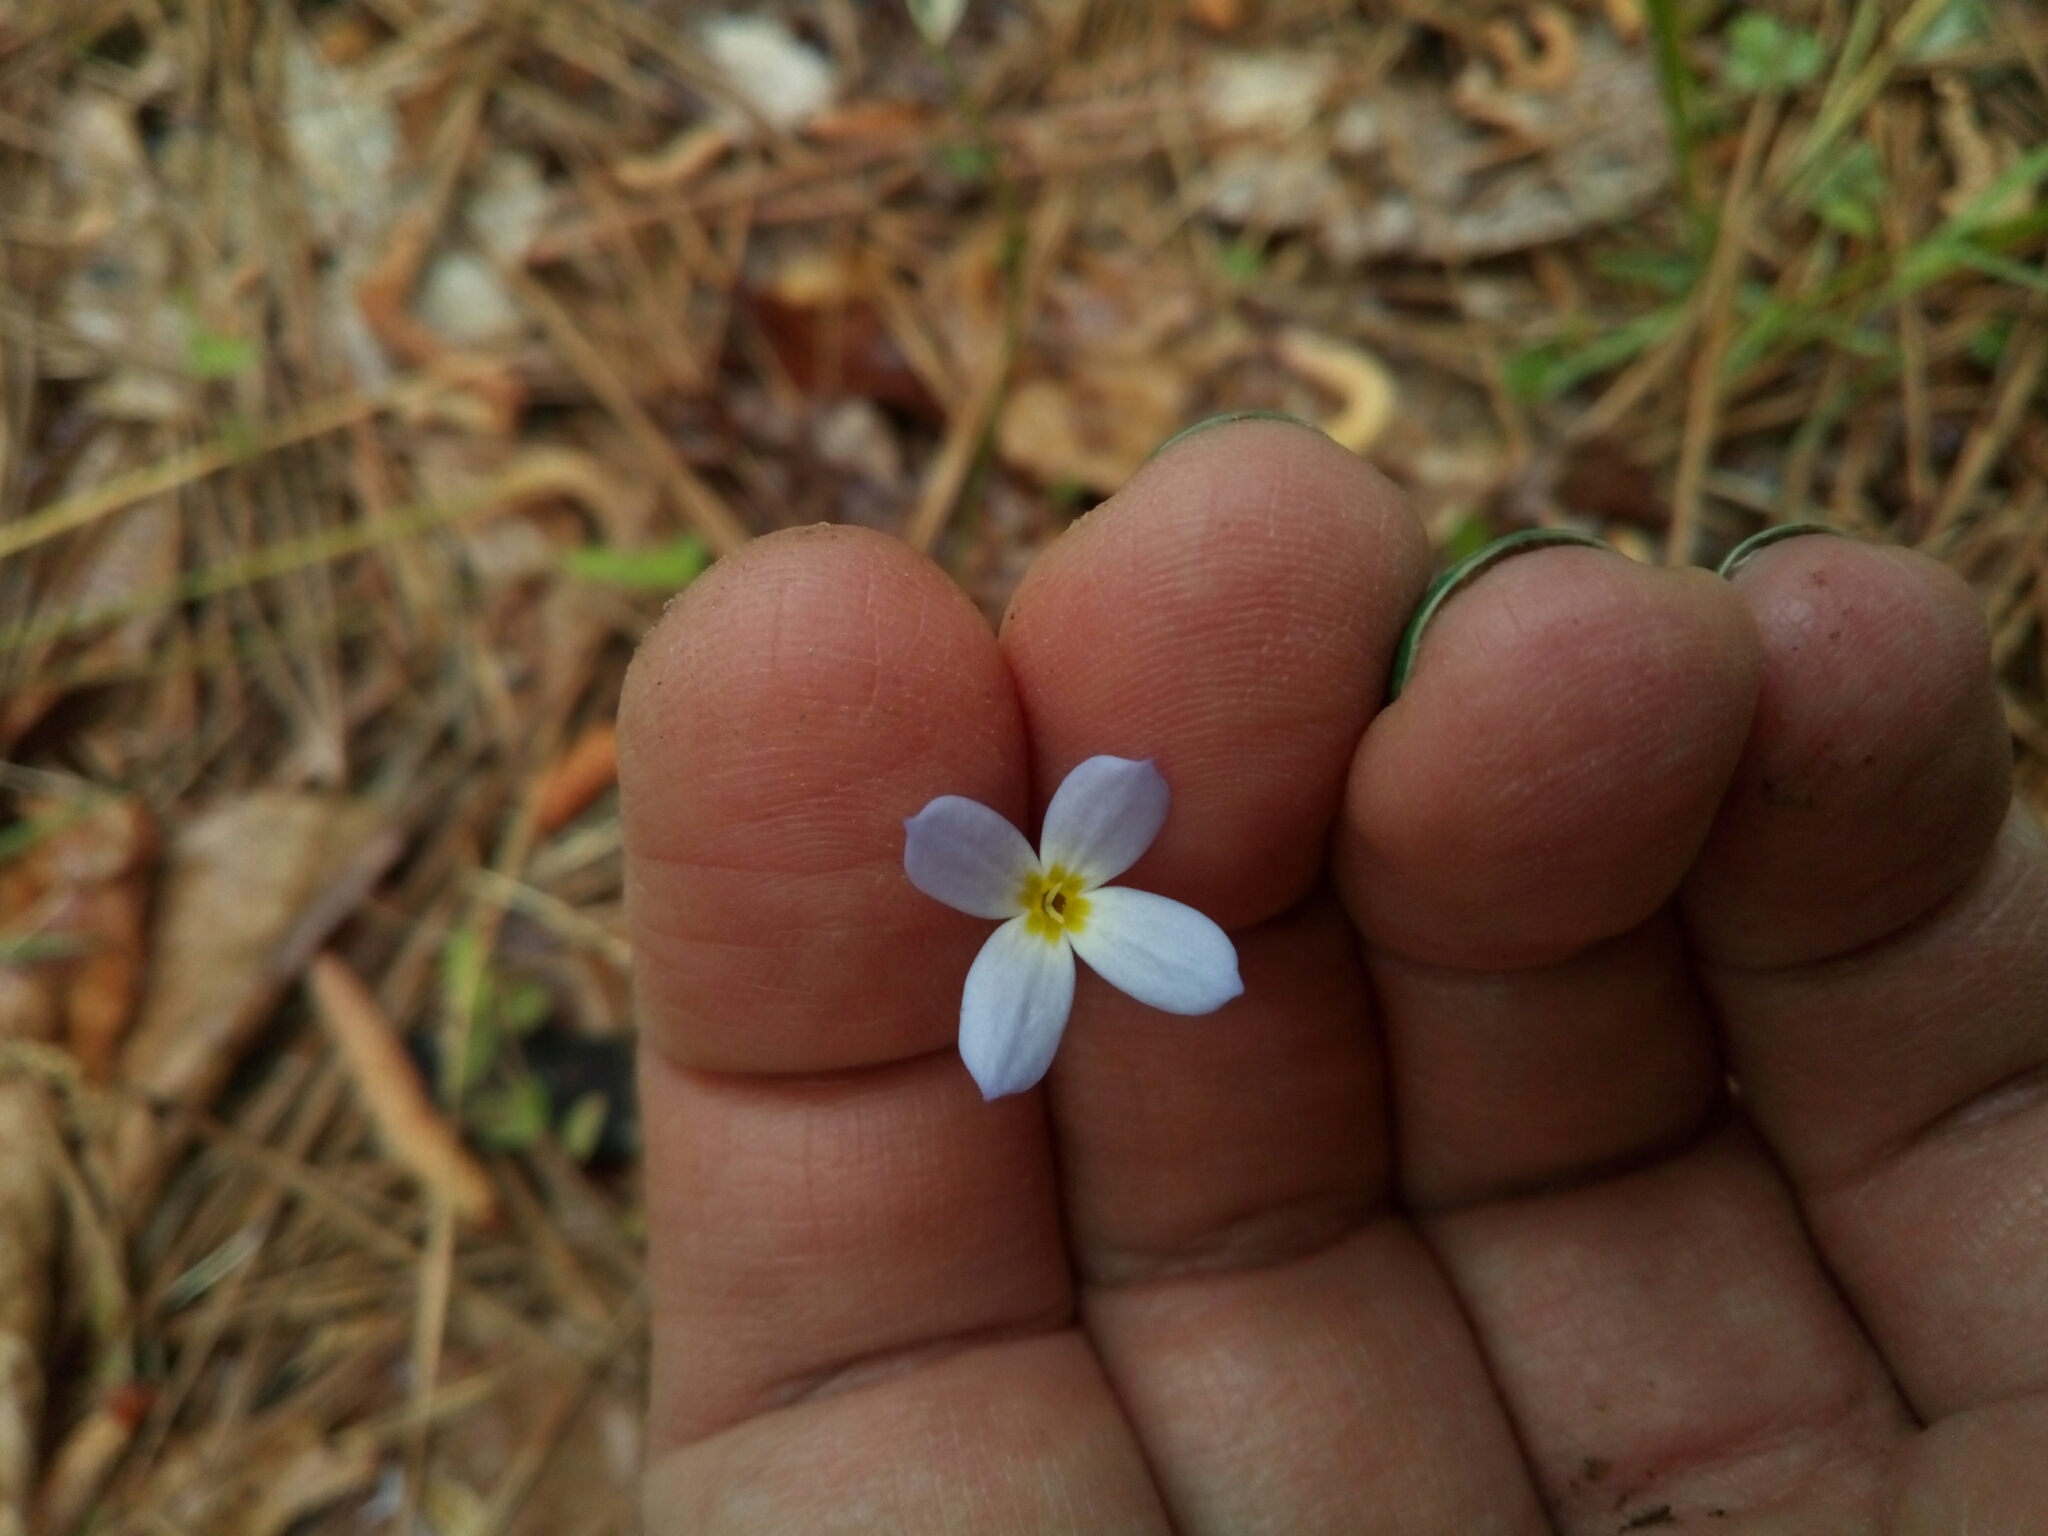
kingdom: Plantae
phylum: Tracheophyta
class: Magnoliopsida
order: Gentianales
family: Rubiaceae
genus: Houstonia
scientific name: Houstonia caerulea
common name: Bluets
